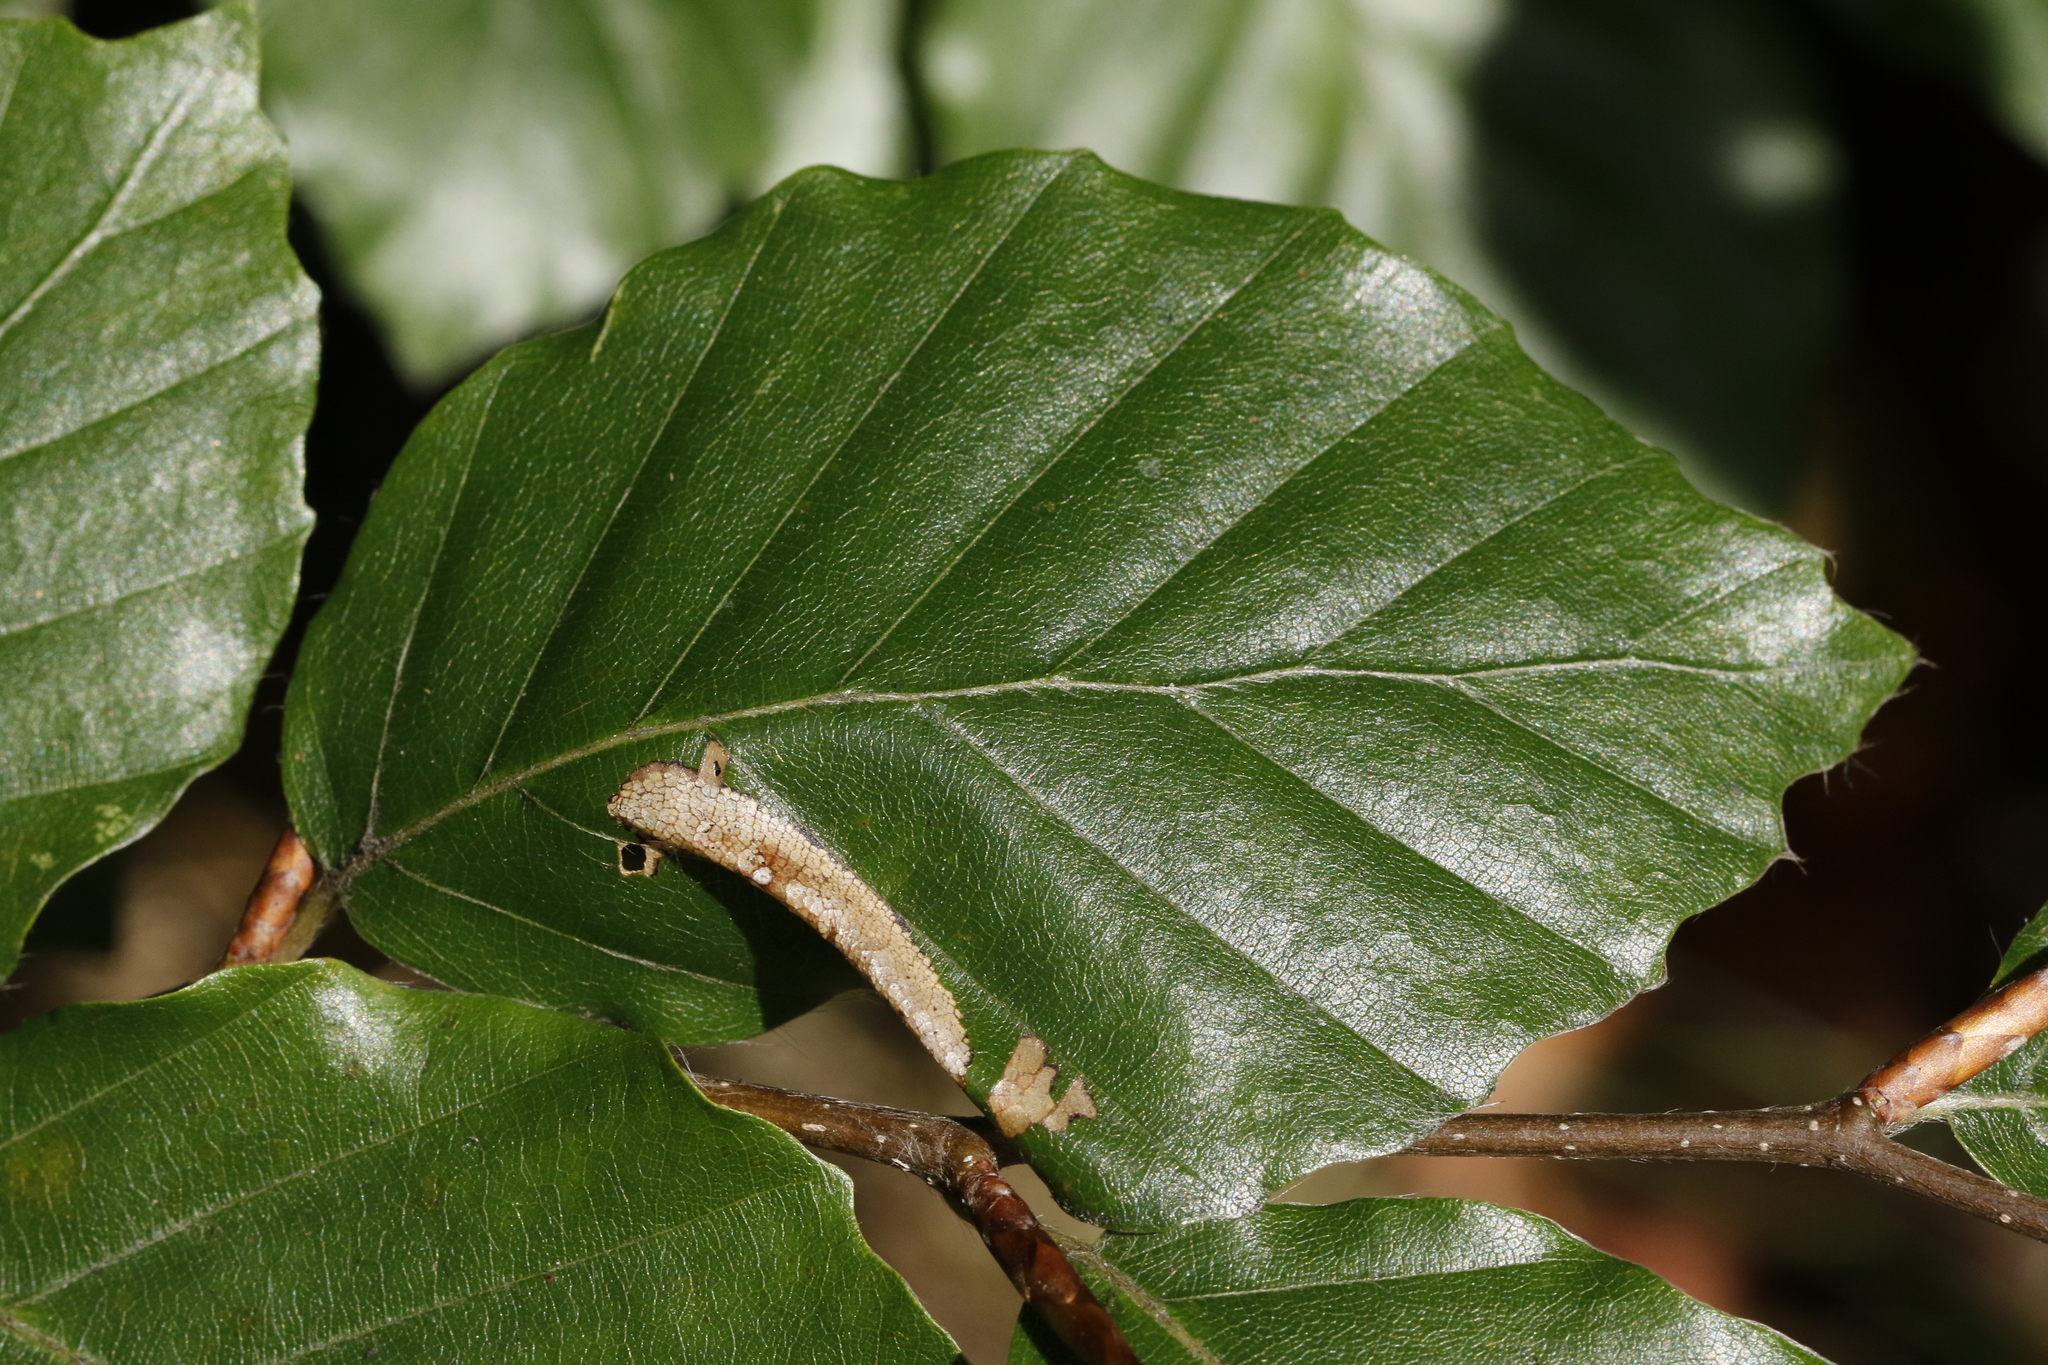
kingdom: Plantae
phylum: Tracheophyta
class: Magnoliopsida
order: Fagales
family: Fagaceae
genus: Fagus
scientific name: Fagus sylvatica
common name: Beech
